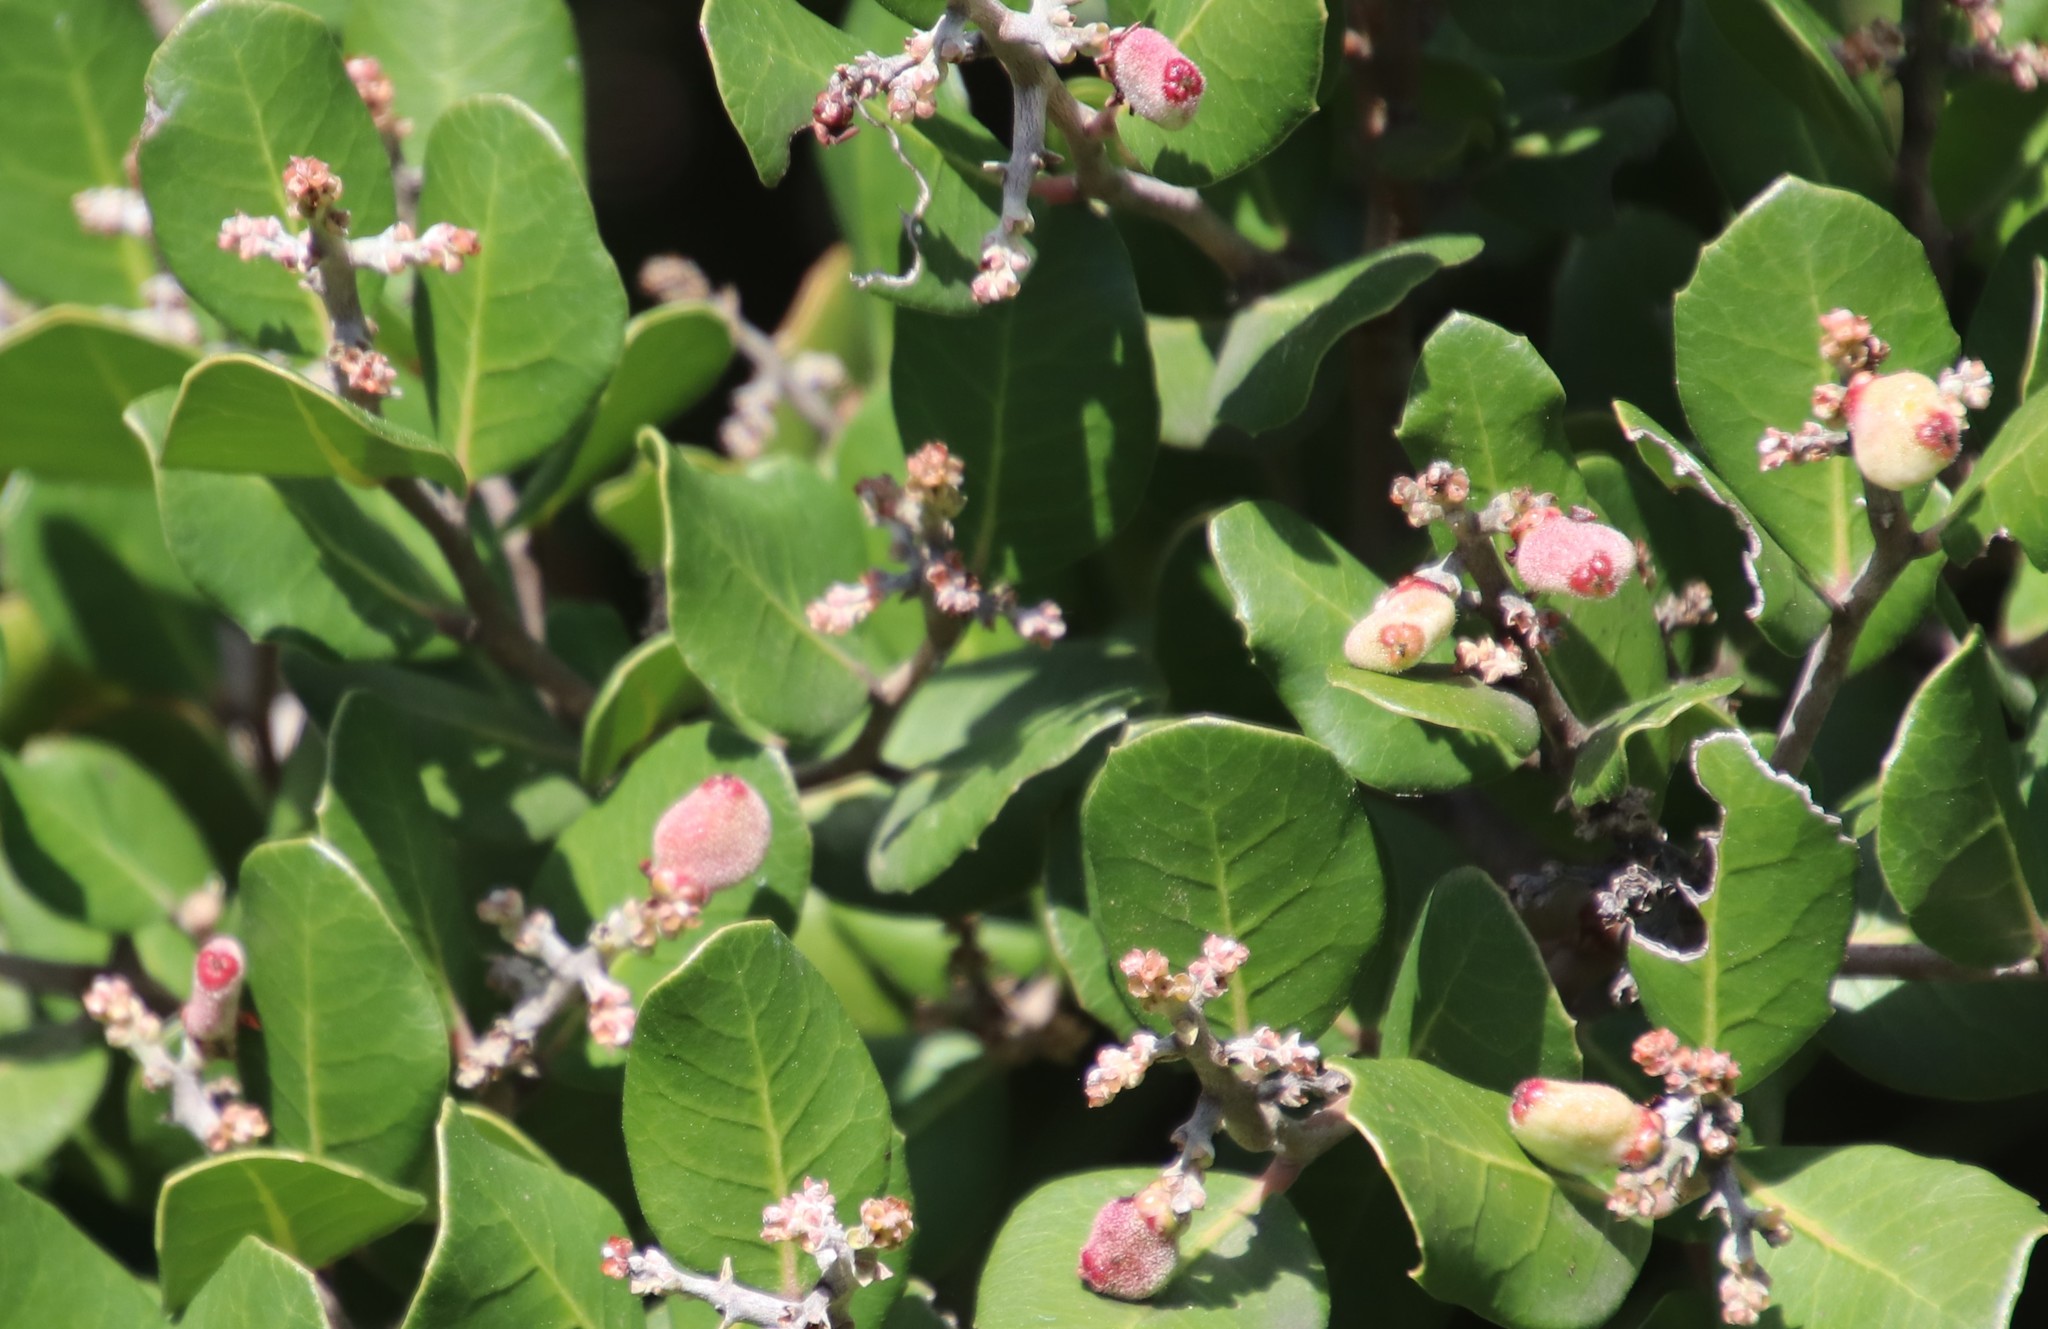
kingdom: Plantae
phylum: Tracheophyta
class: Magnoliopsida
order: Sapindales
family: Anacardiaceae
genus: Rhus
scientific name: Rhus integrifolia
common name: Lemonade sumac
